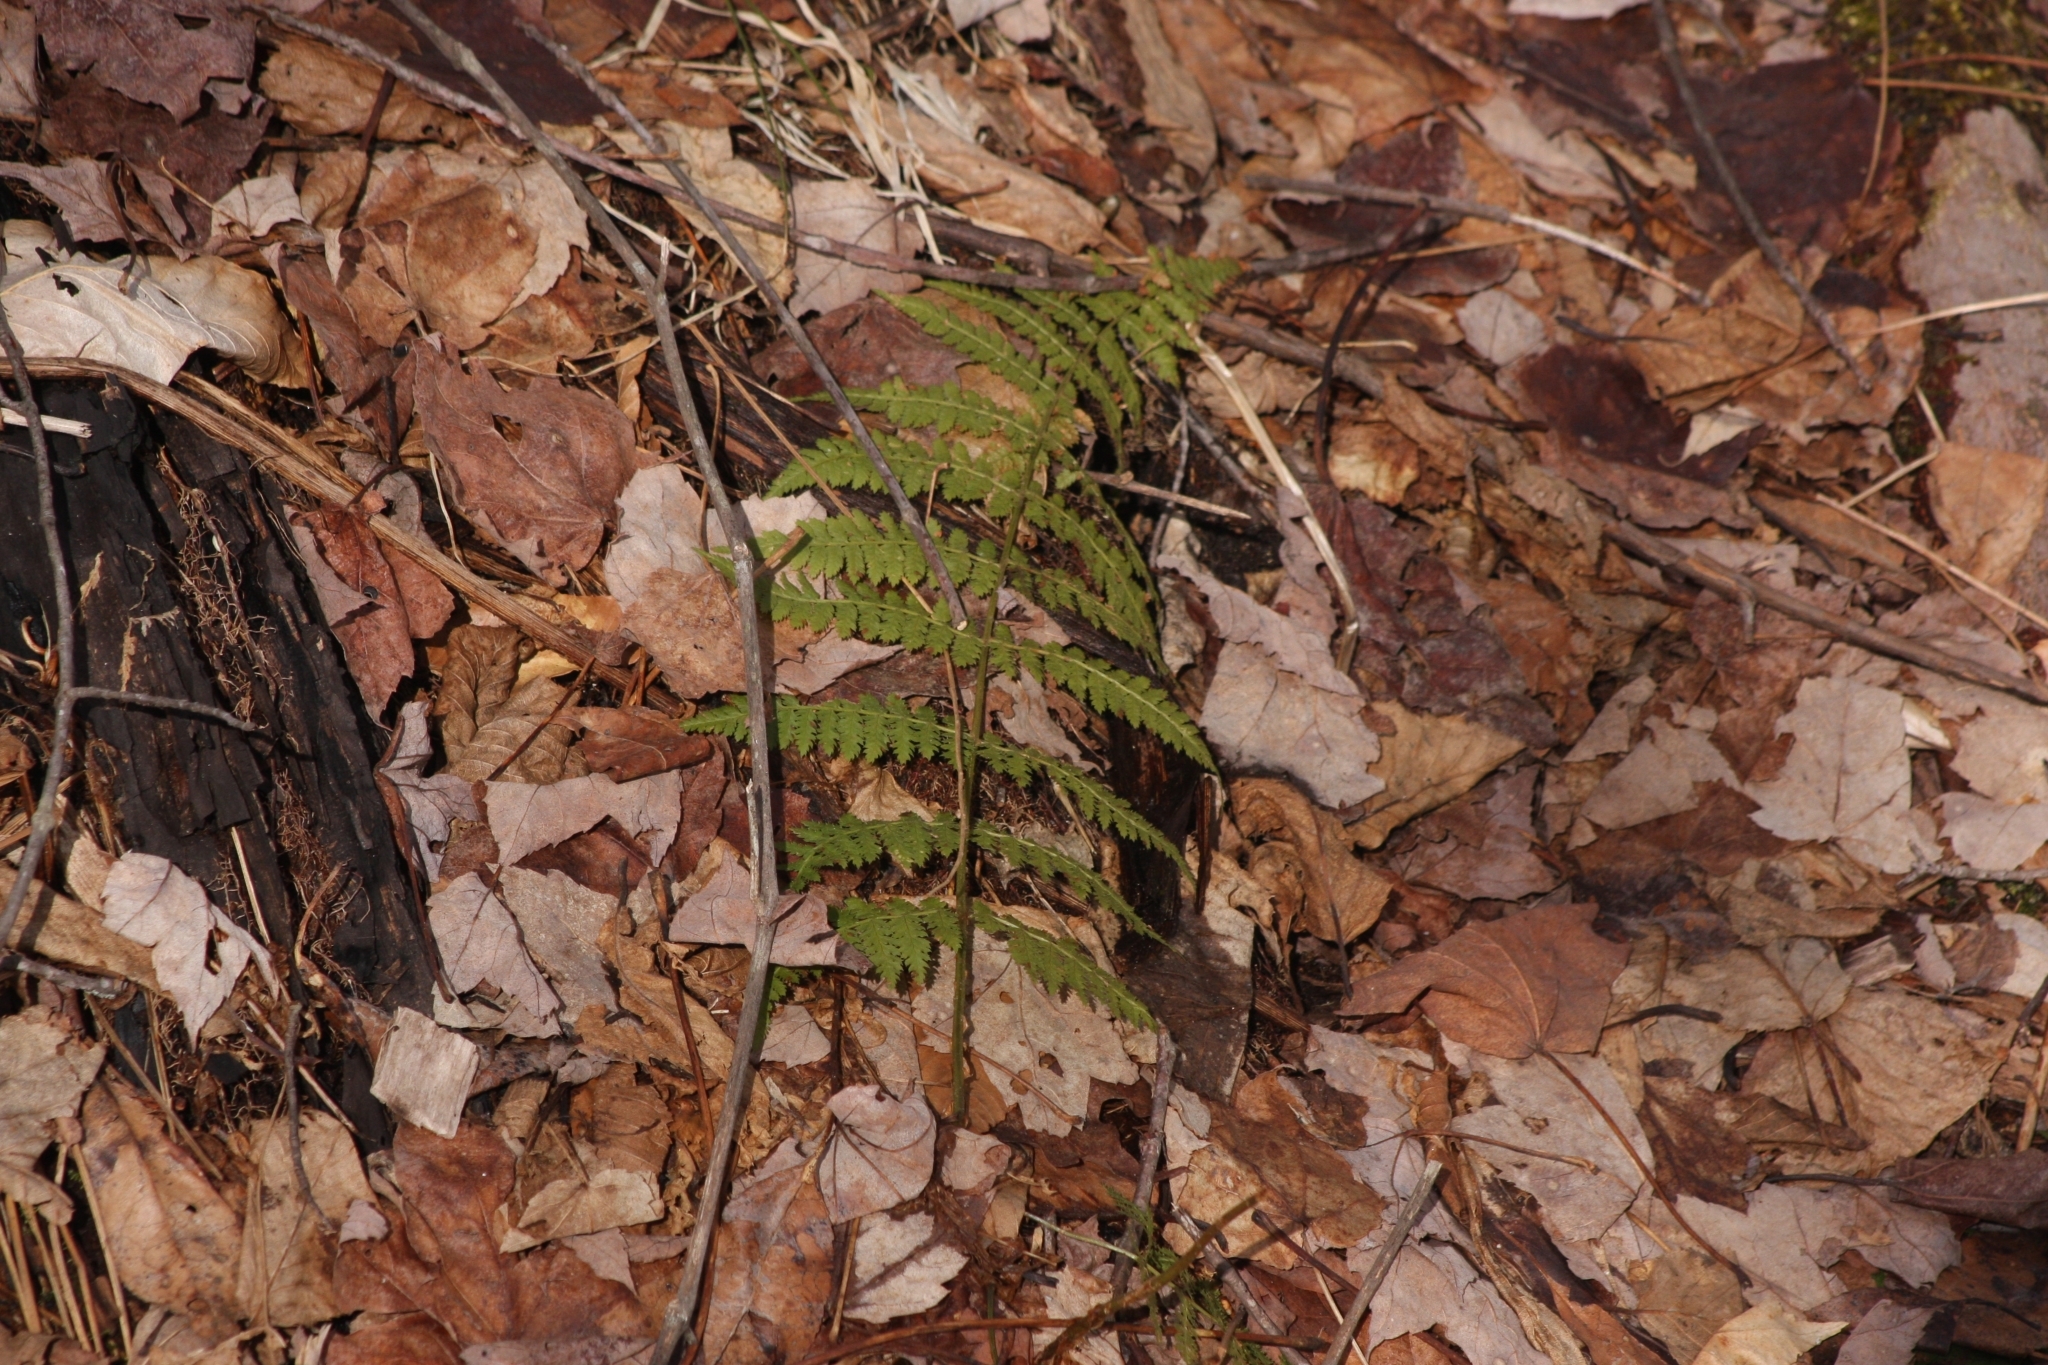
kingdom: Plantae
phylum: Tracheophyta
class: Polypodiopsida
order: Polypodiales
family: Dryopteridaceae
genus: Dryopteris
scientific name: Dryopteris intermedia
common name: Evergreen wood fern
